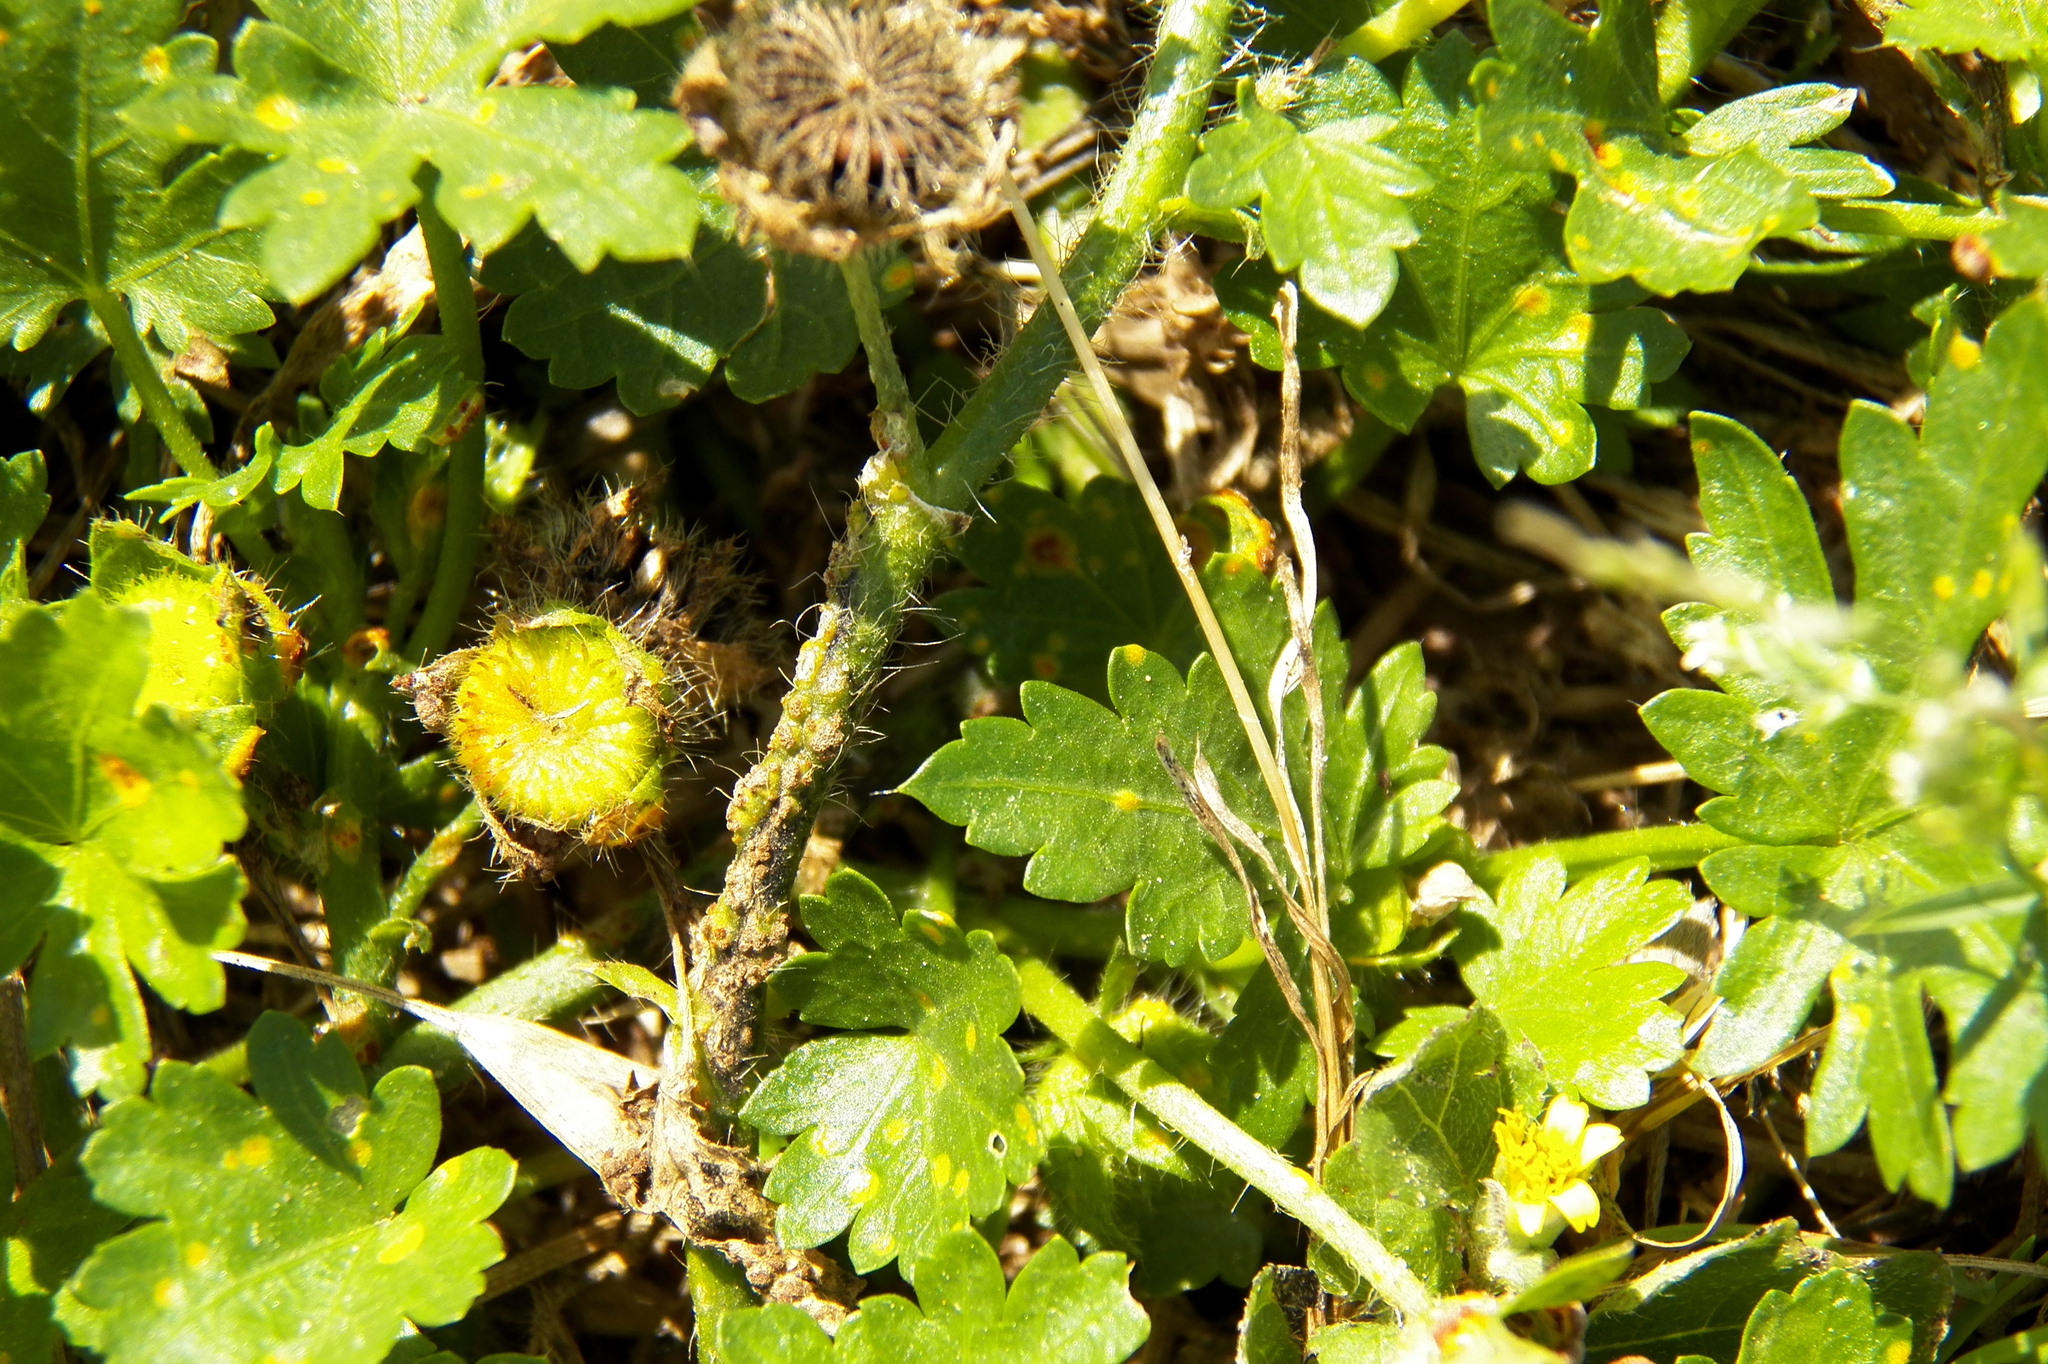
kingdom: Plantae
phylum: Tracheophyta
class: Magnoliopsida
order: Malvales
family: Malvaceae
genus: Modiola
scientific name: Modiola caroliniana
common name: Carolina bristlemallow
